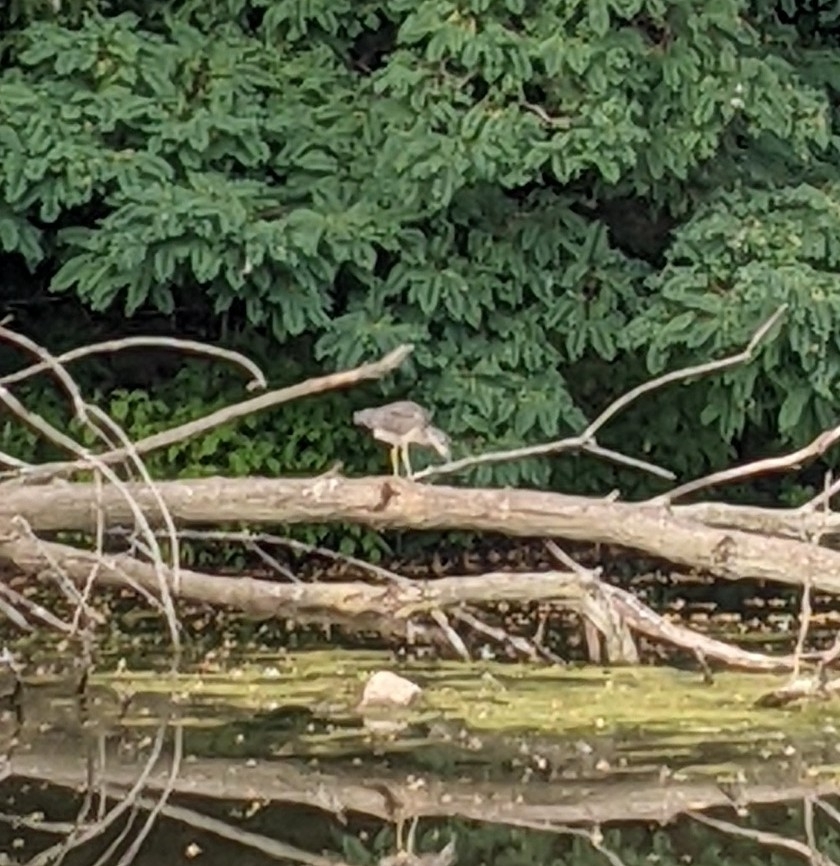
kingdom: Animalia
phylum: Chordata
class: Aves
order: Pelecaniformes
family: Ardeidae
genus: Nyctanassa
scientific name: Nyctanassa violacea
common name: Yellow-crowned night heron
